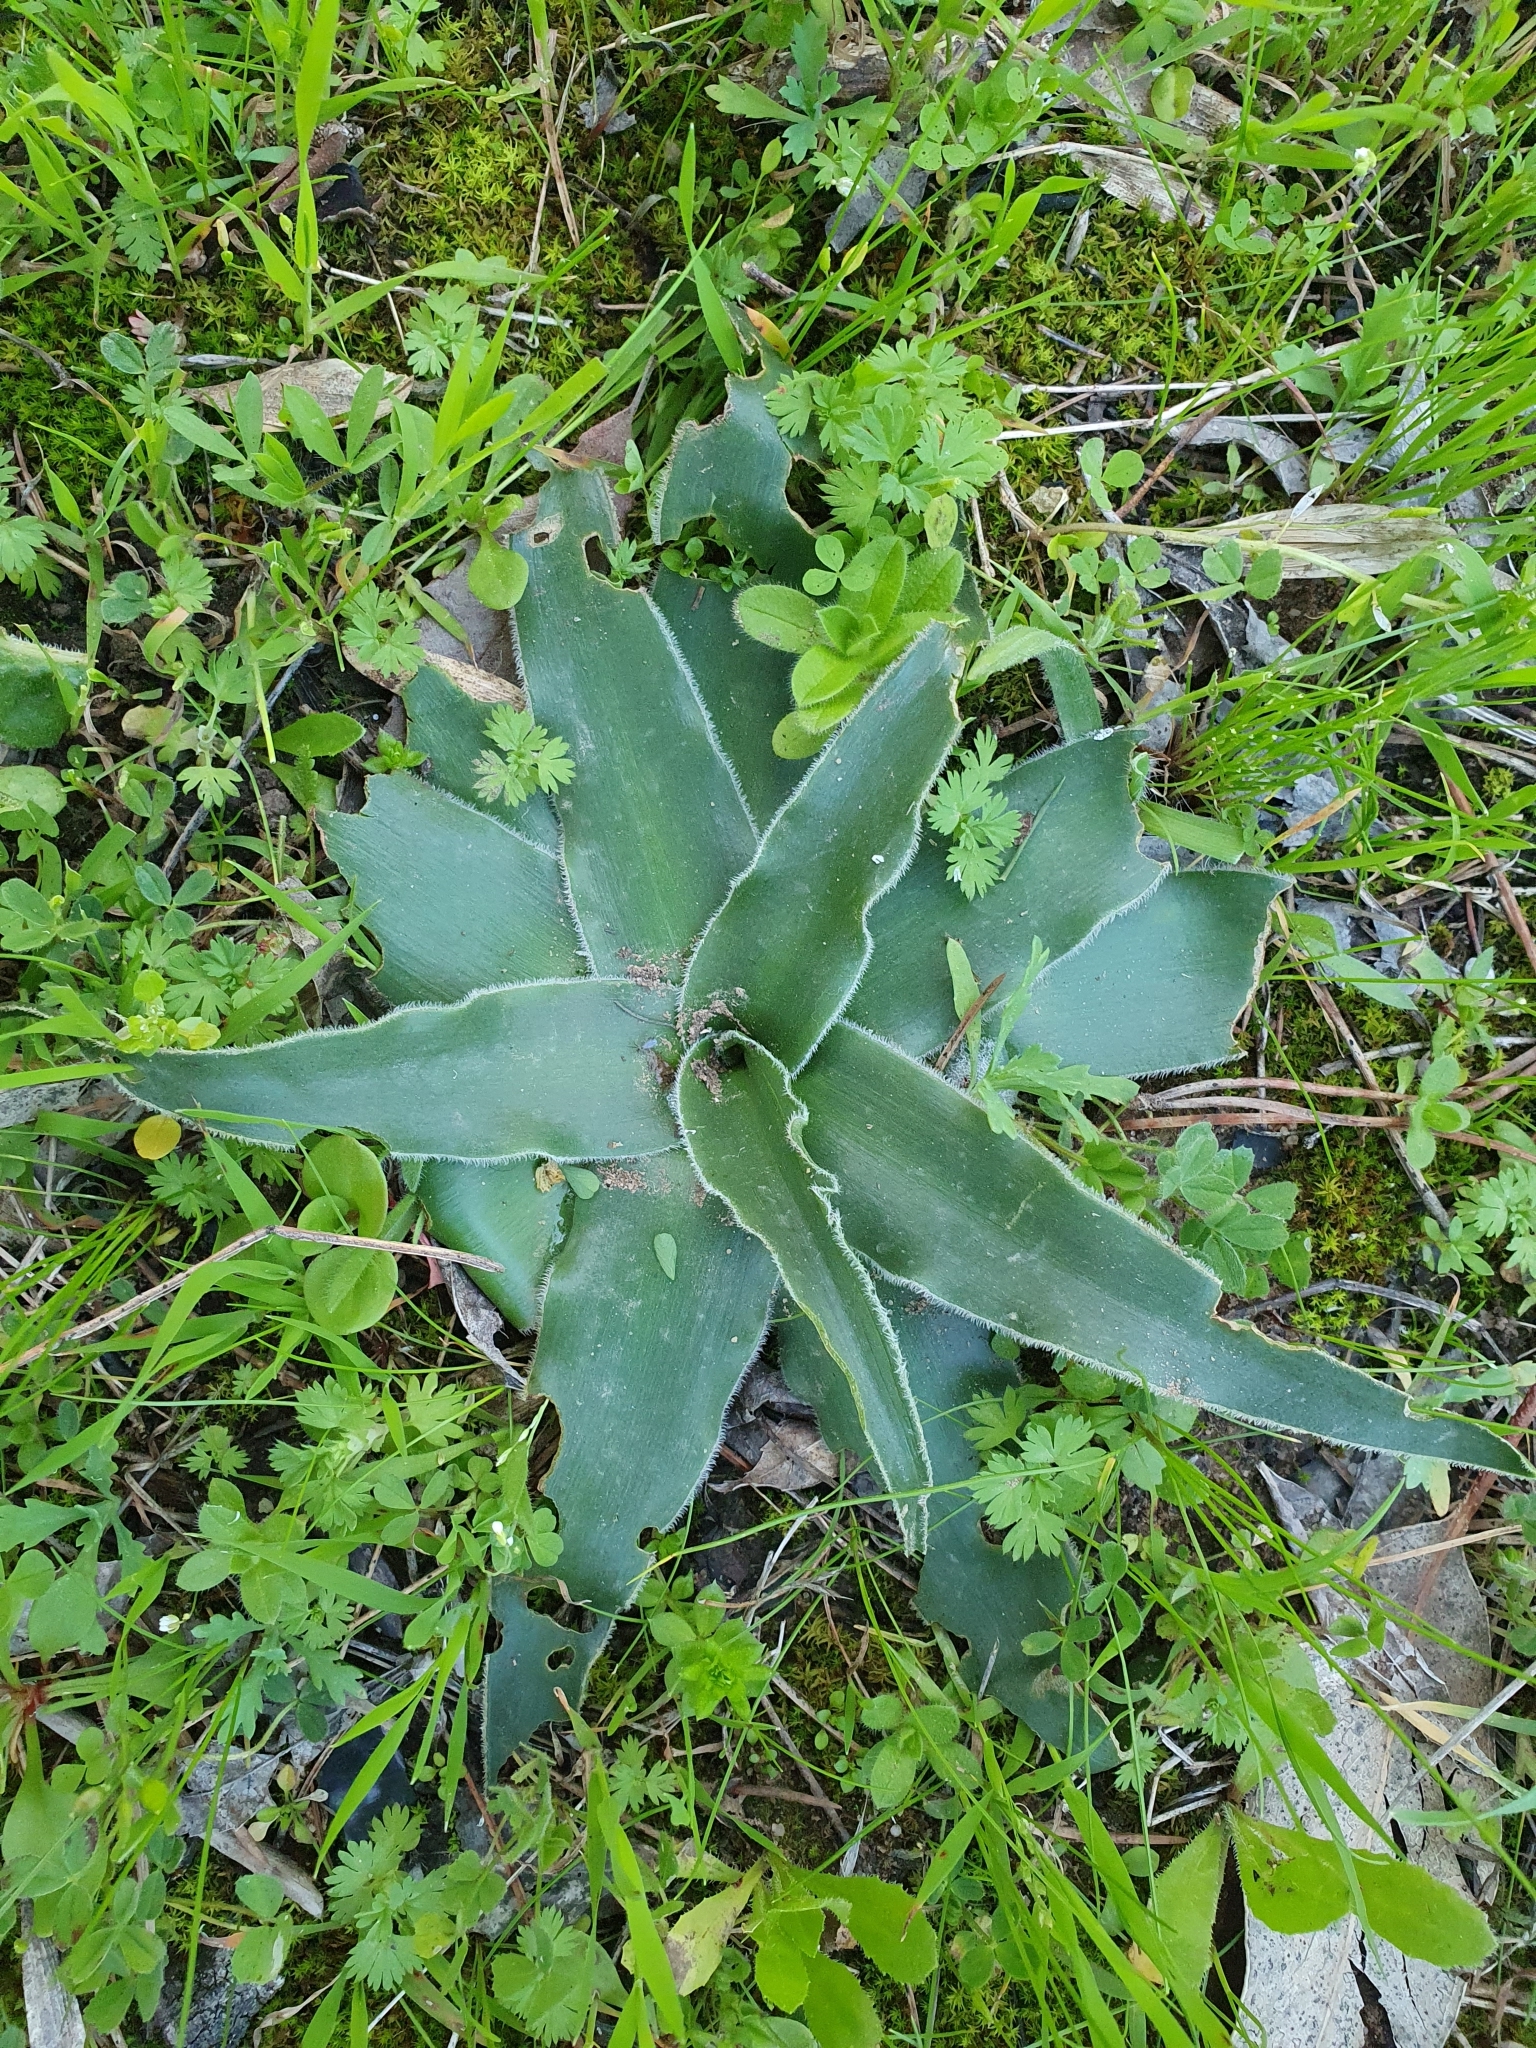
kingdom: Plantae
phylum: Tracheophyta
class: Liliopsida
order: Asparagales
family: Asparagaceae
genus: Scilla
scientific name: Scilla peruviana
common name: Portuguese squill
